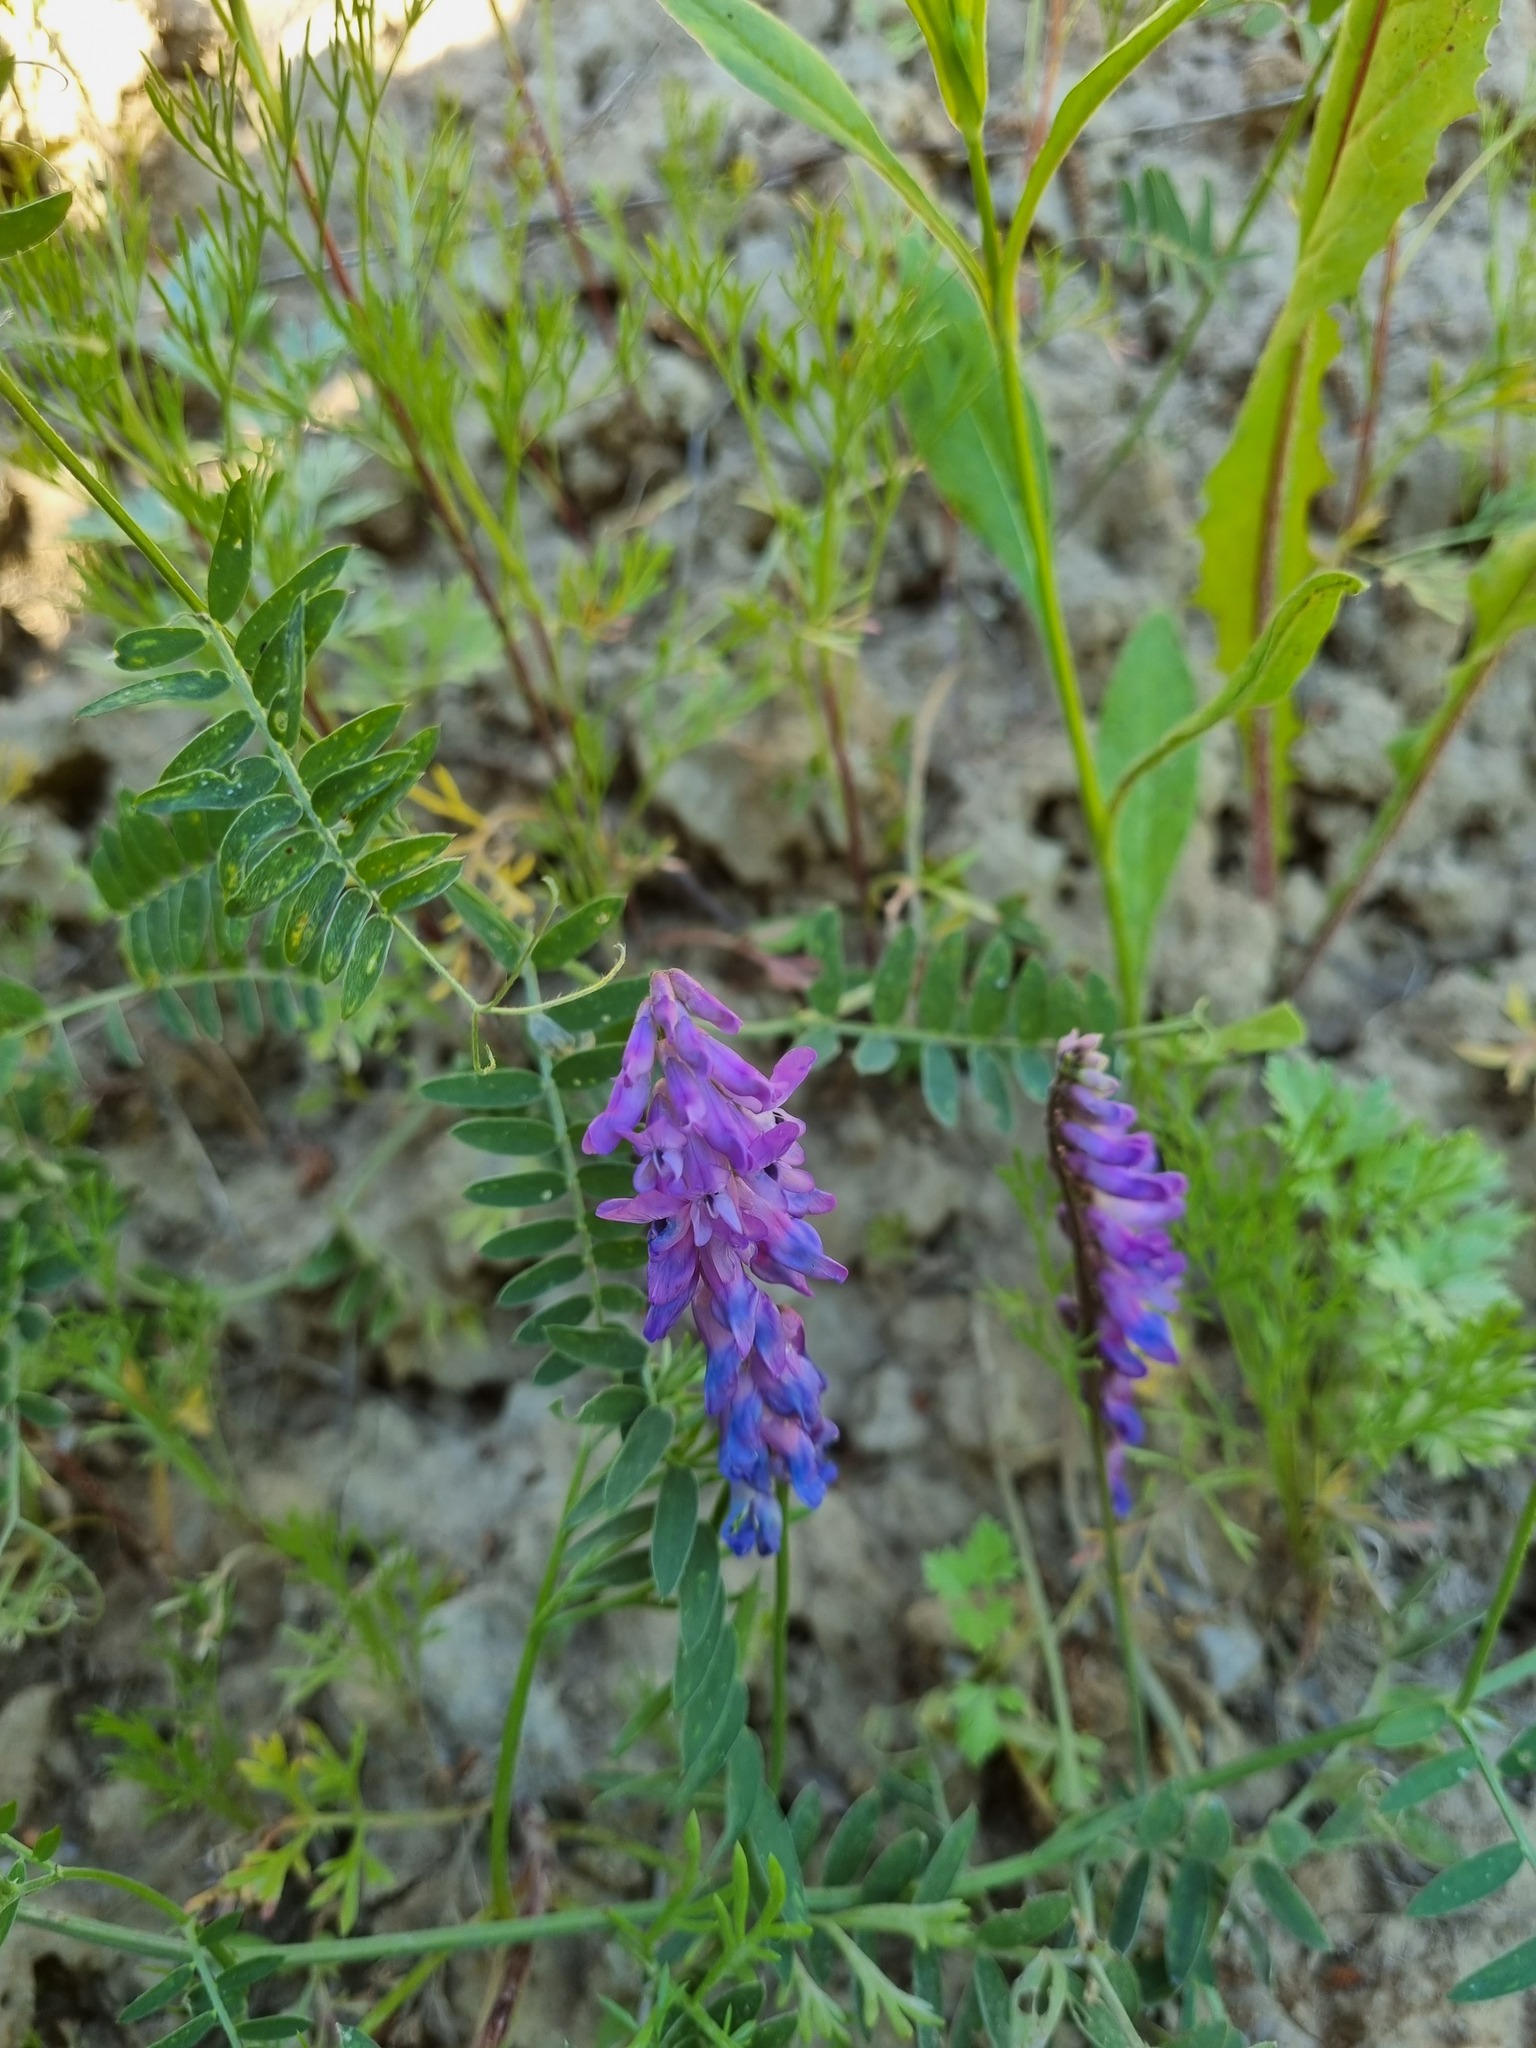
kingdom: Plantae
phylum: Tracheophyta
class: Magnoliopsida
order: Fabales
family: Fabaceae
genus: Vicia
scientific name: Vicia cracca
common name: Bird vetch
